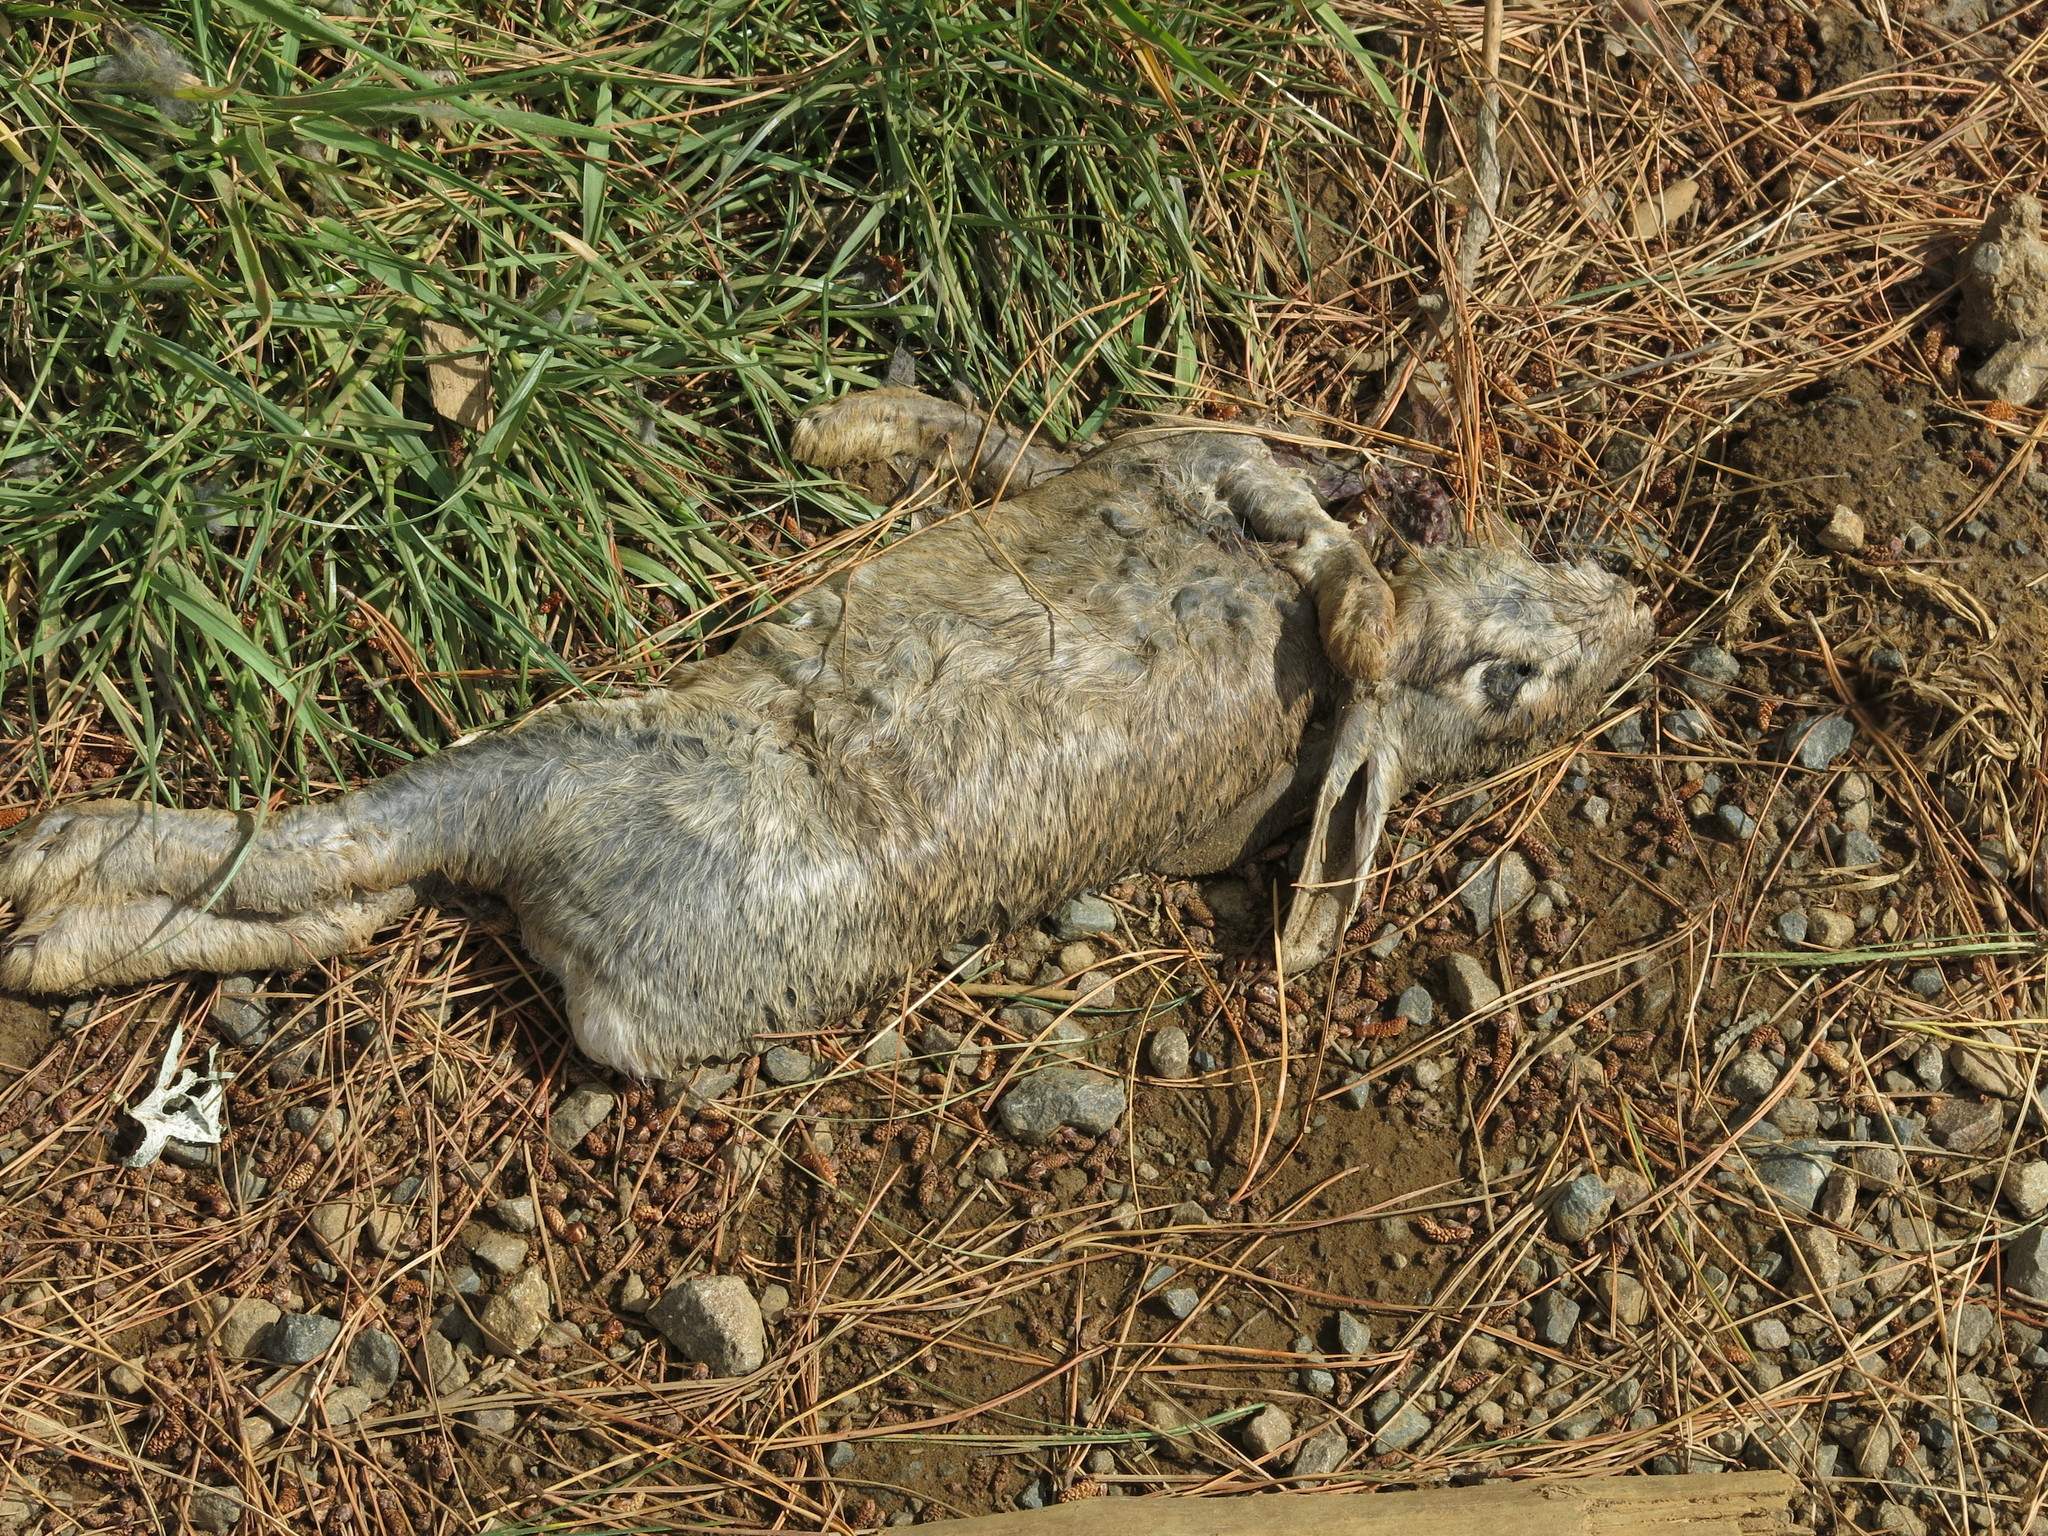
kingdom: Animalia
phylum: Chordata
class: Mammalia
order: Lagomorpha
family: Leporidae
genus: Oryctolagus
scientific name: Oryctolagus cuniculus
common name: European rabbit
